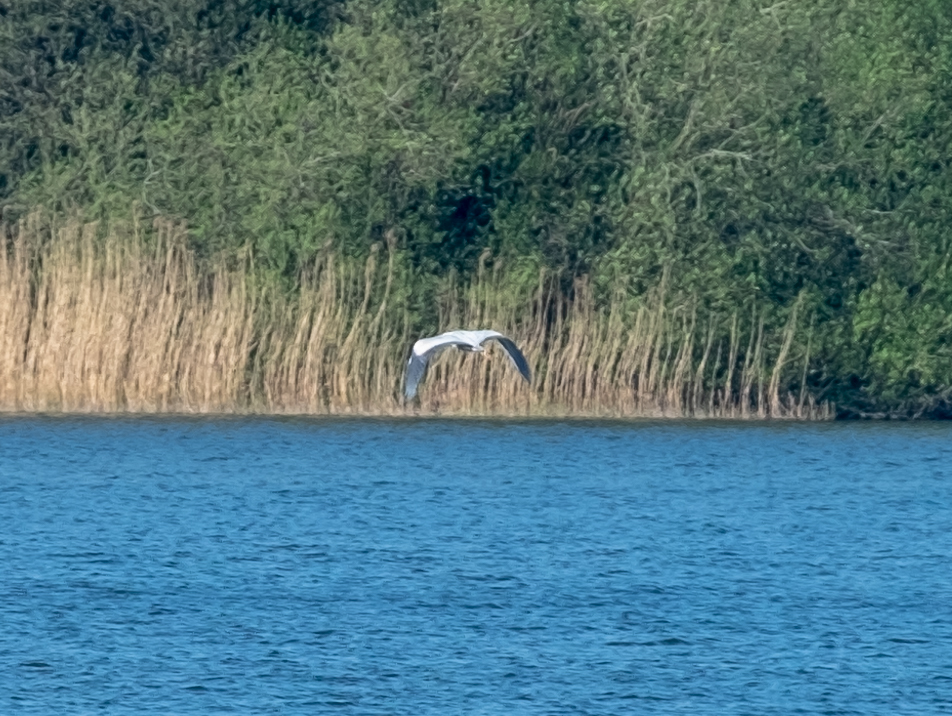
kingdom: Animalia
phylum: Chordata
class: Aves
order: Pelecaniformes
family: Ardeidae
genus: Ardea
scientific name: Ardea cinerea
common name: Grey heron
